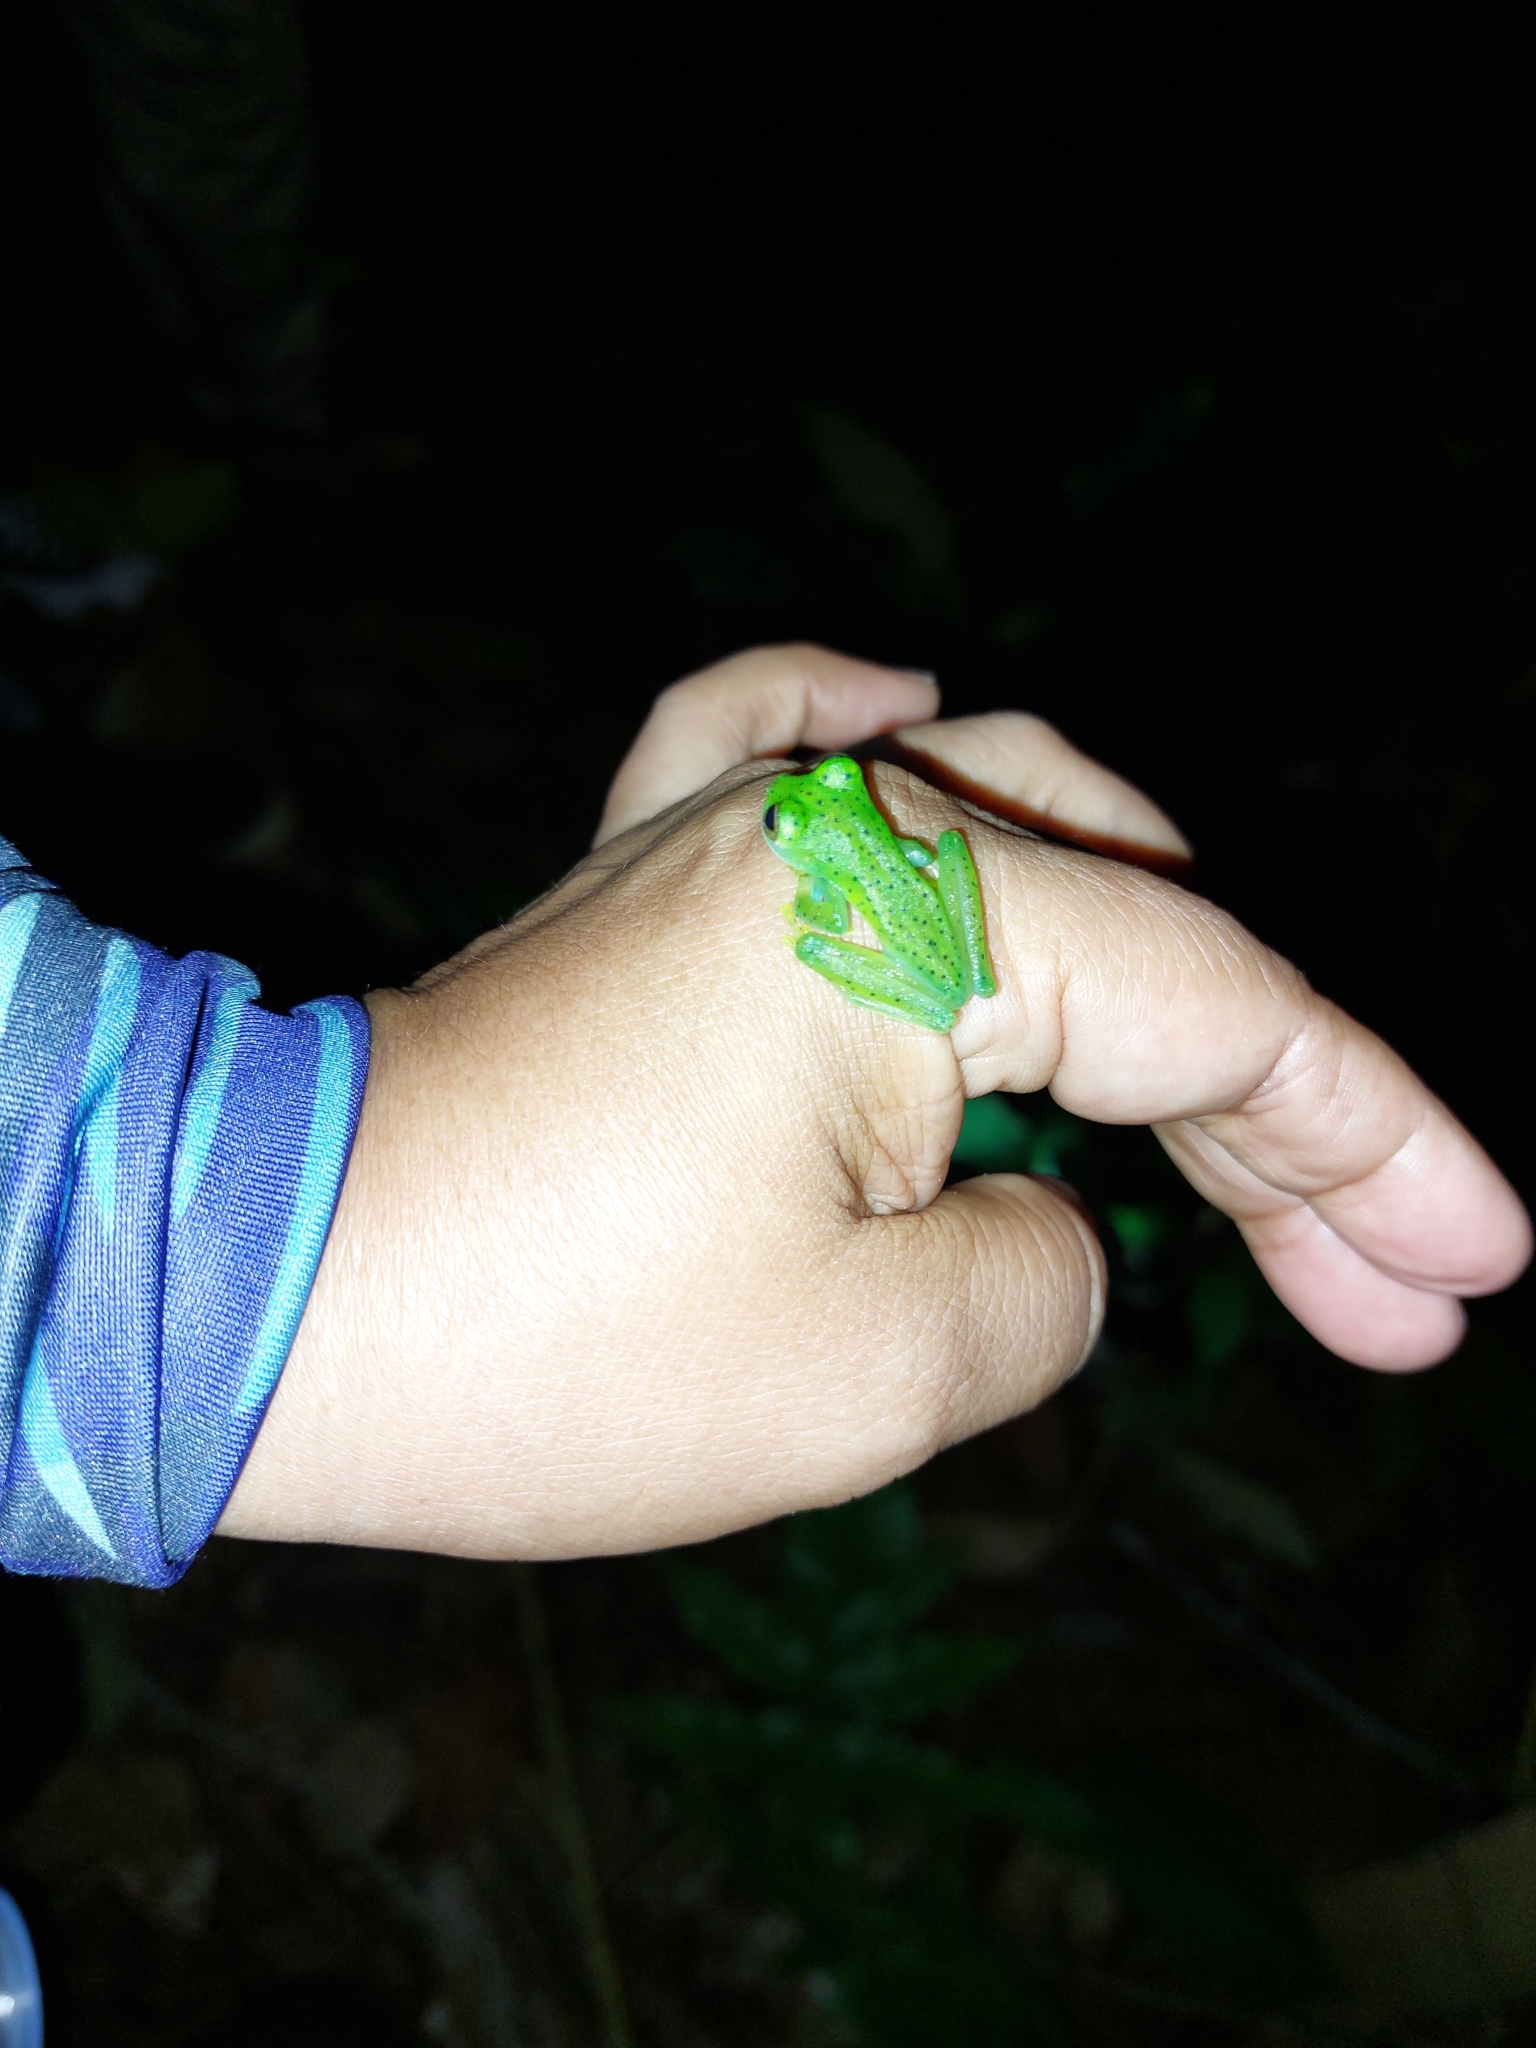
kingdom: Animalia
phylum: Chordata
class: Amphibia
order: Anura
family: Centrolenidae
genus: Espadarana
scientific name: Espadarana prosoblepon
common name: Rana de cristal variable
